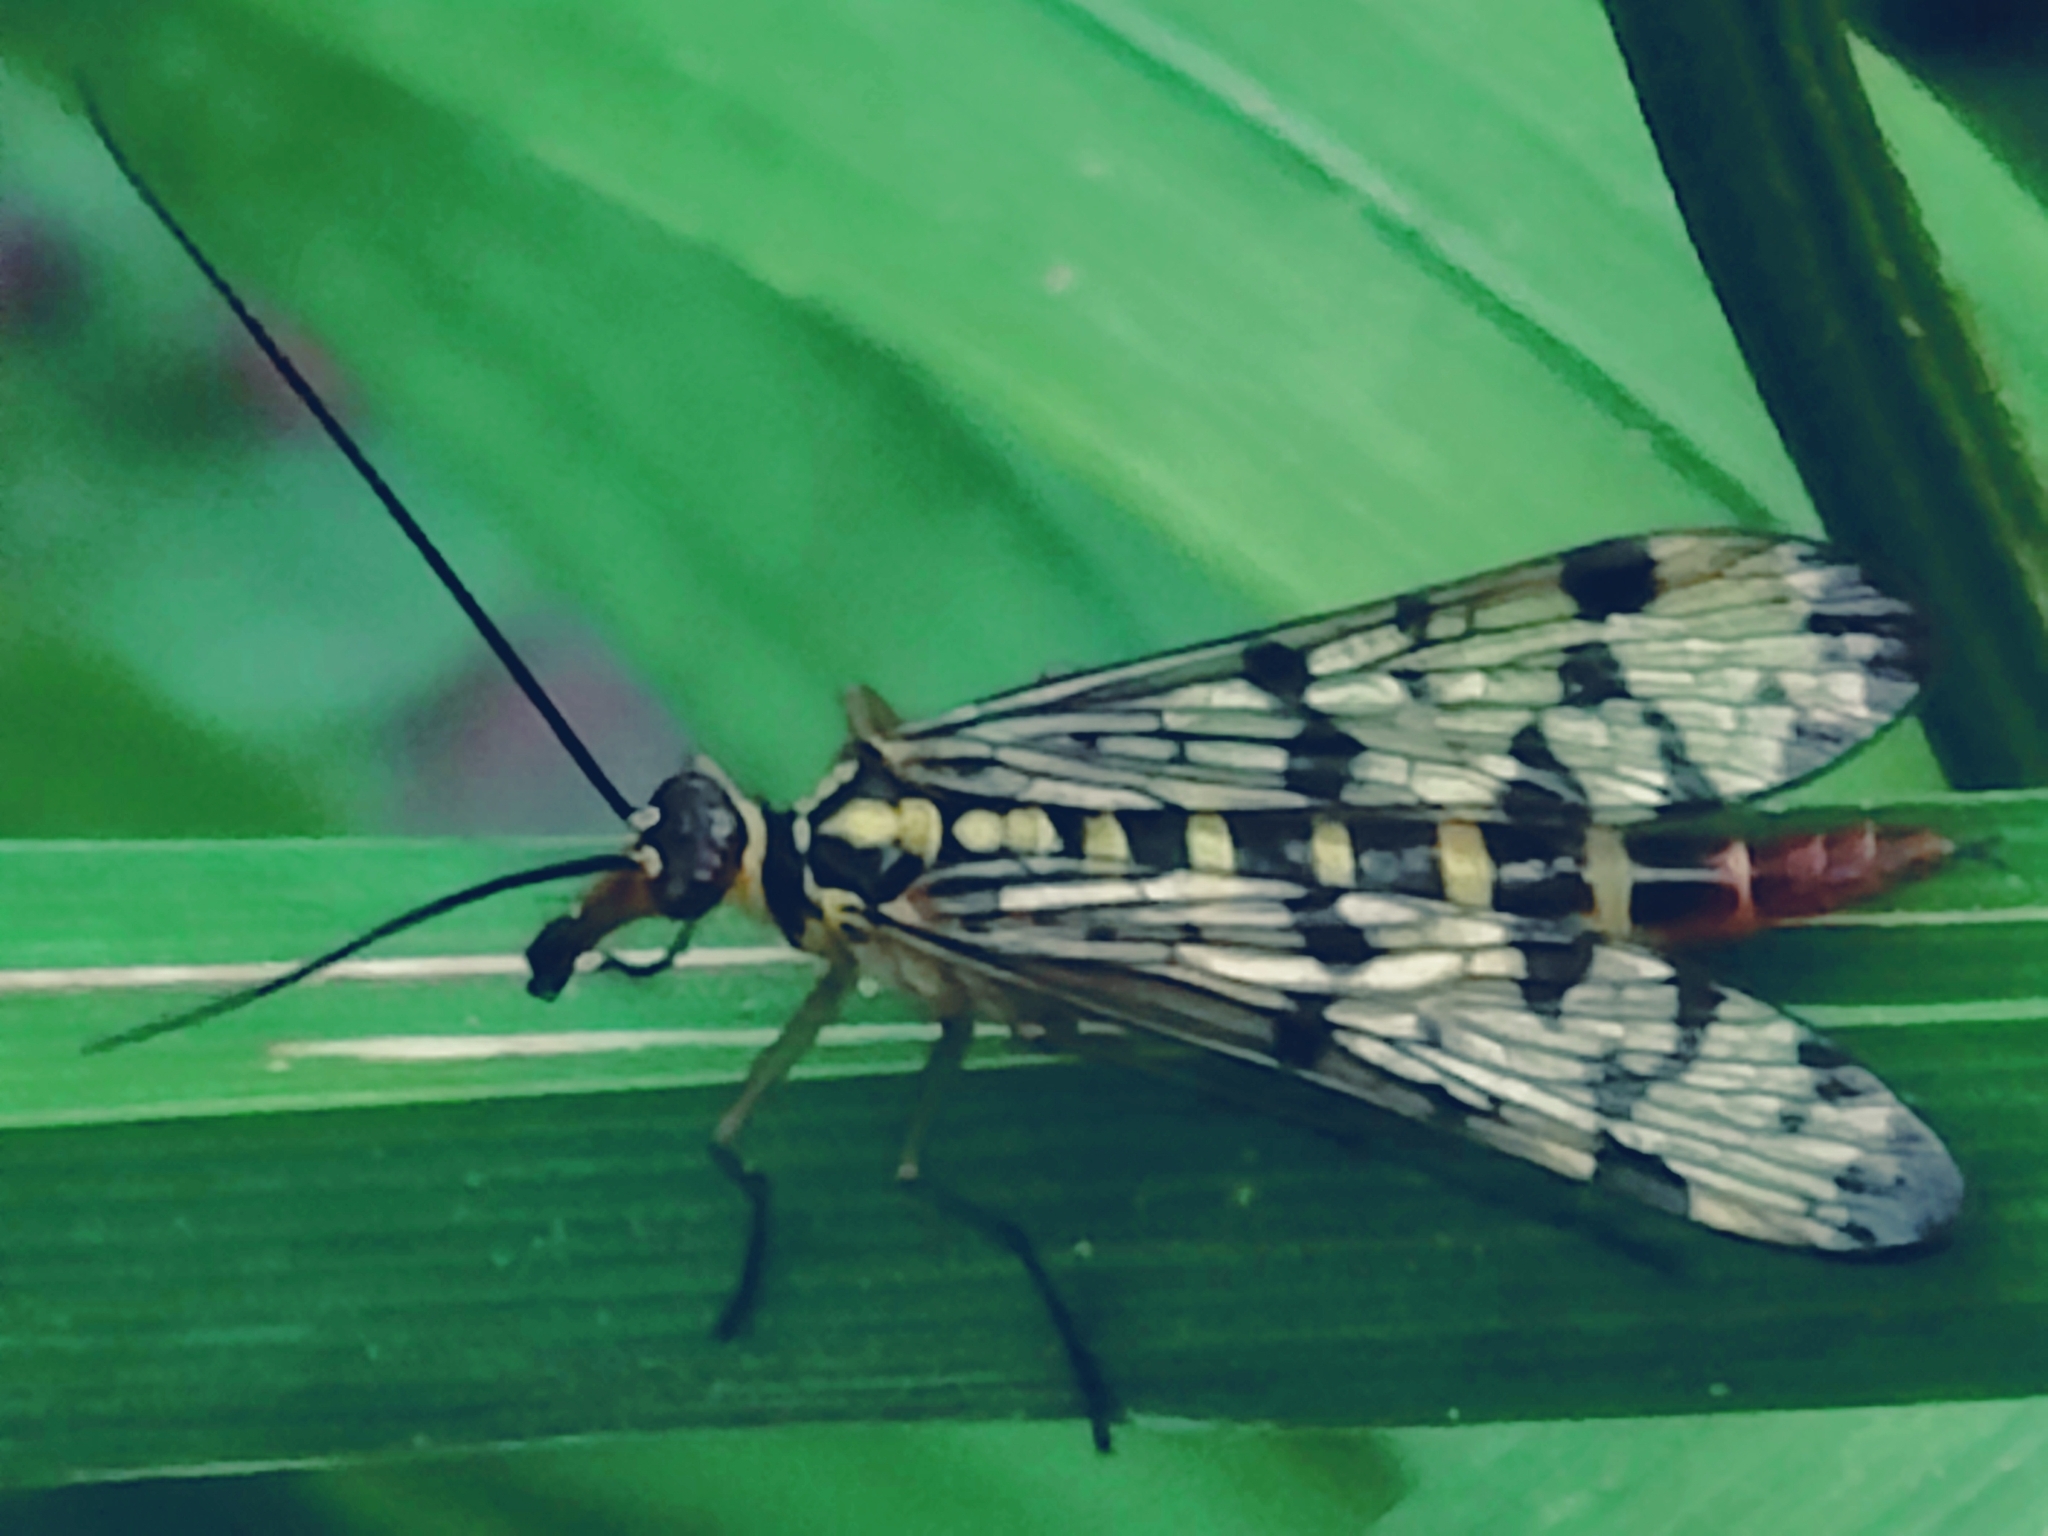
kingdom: Animalia
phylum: Arthropoda
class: Insecta
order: Mecoptera
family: Panorpidae
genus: Panorpa
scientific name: Panorpa
